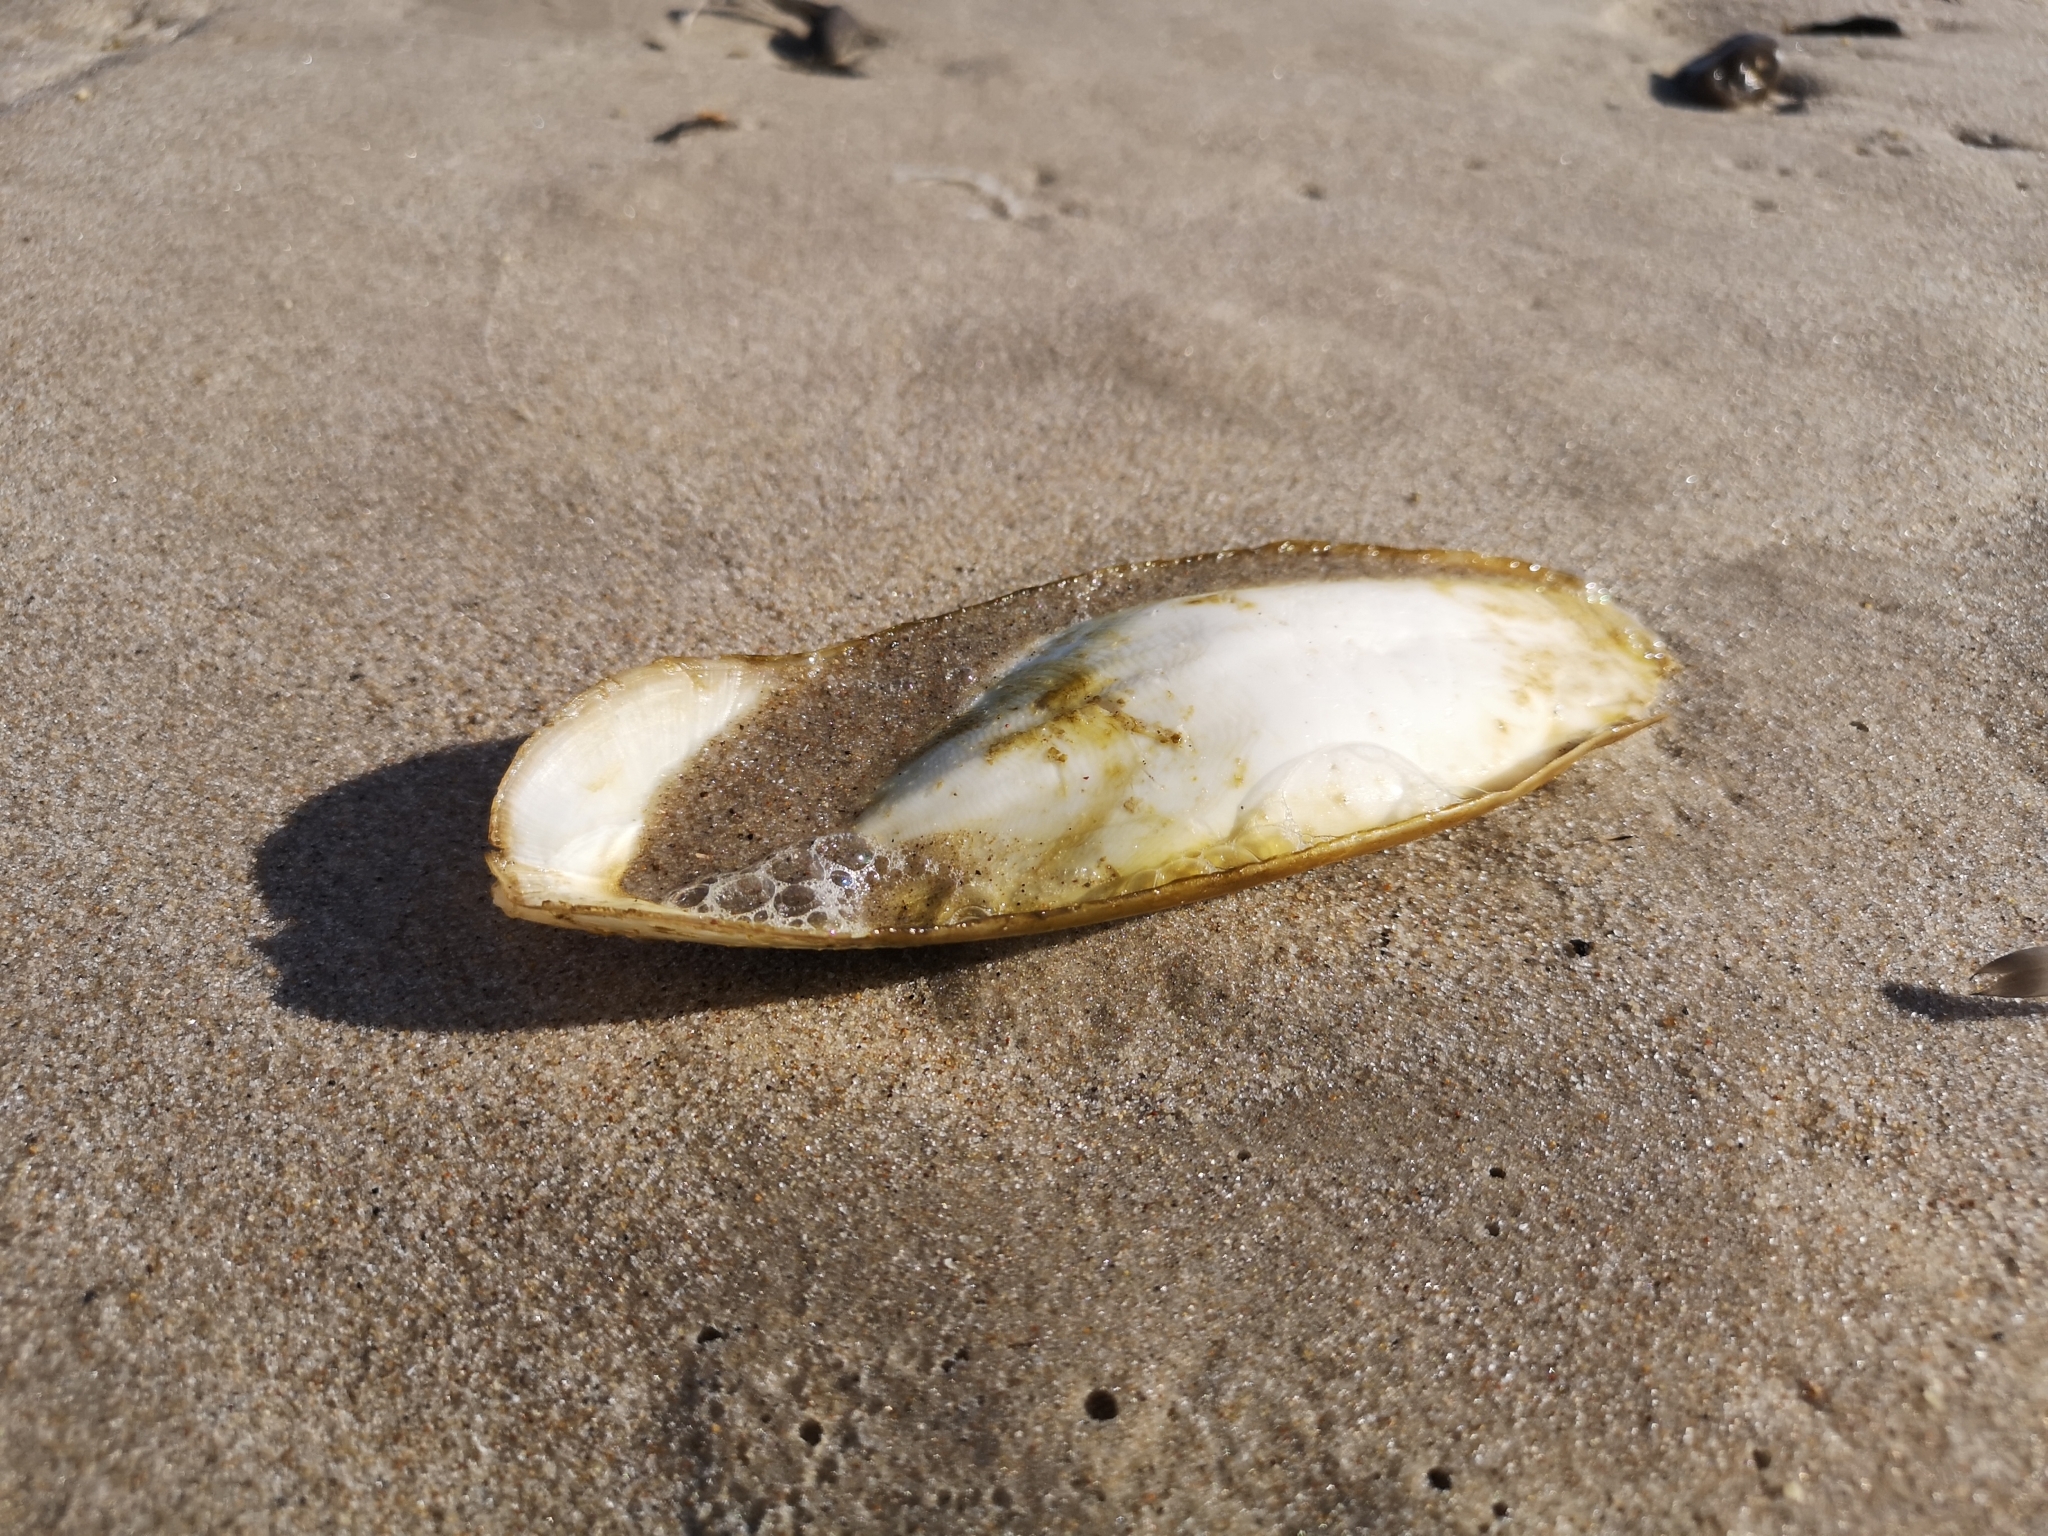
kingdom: Animalia
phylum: Mollusca
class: Cephalopoda
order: Sepiida
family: Sepiidae
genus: Sepia
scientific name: Sepia officinalis
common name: Common cuttlefish
